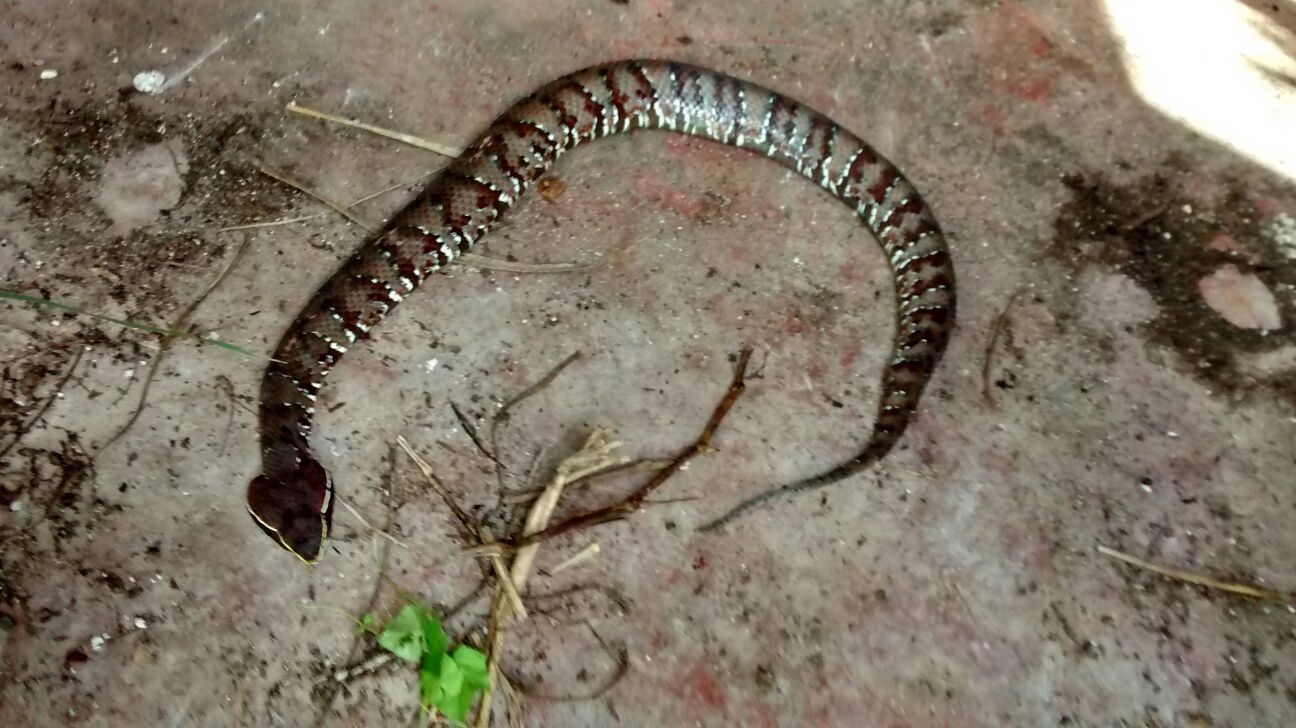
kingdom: Animalia
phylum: Chordata
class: Squamata
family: Viperidae
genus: Agkistrodon
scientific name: Agkistrodon russeolus
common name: Cantil
